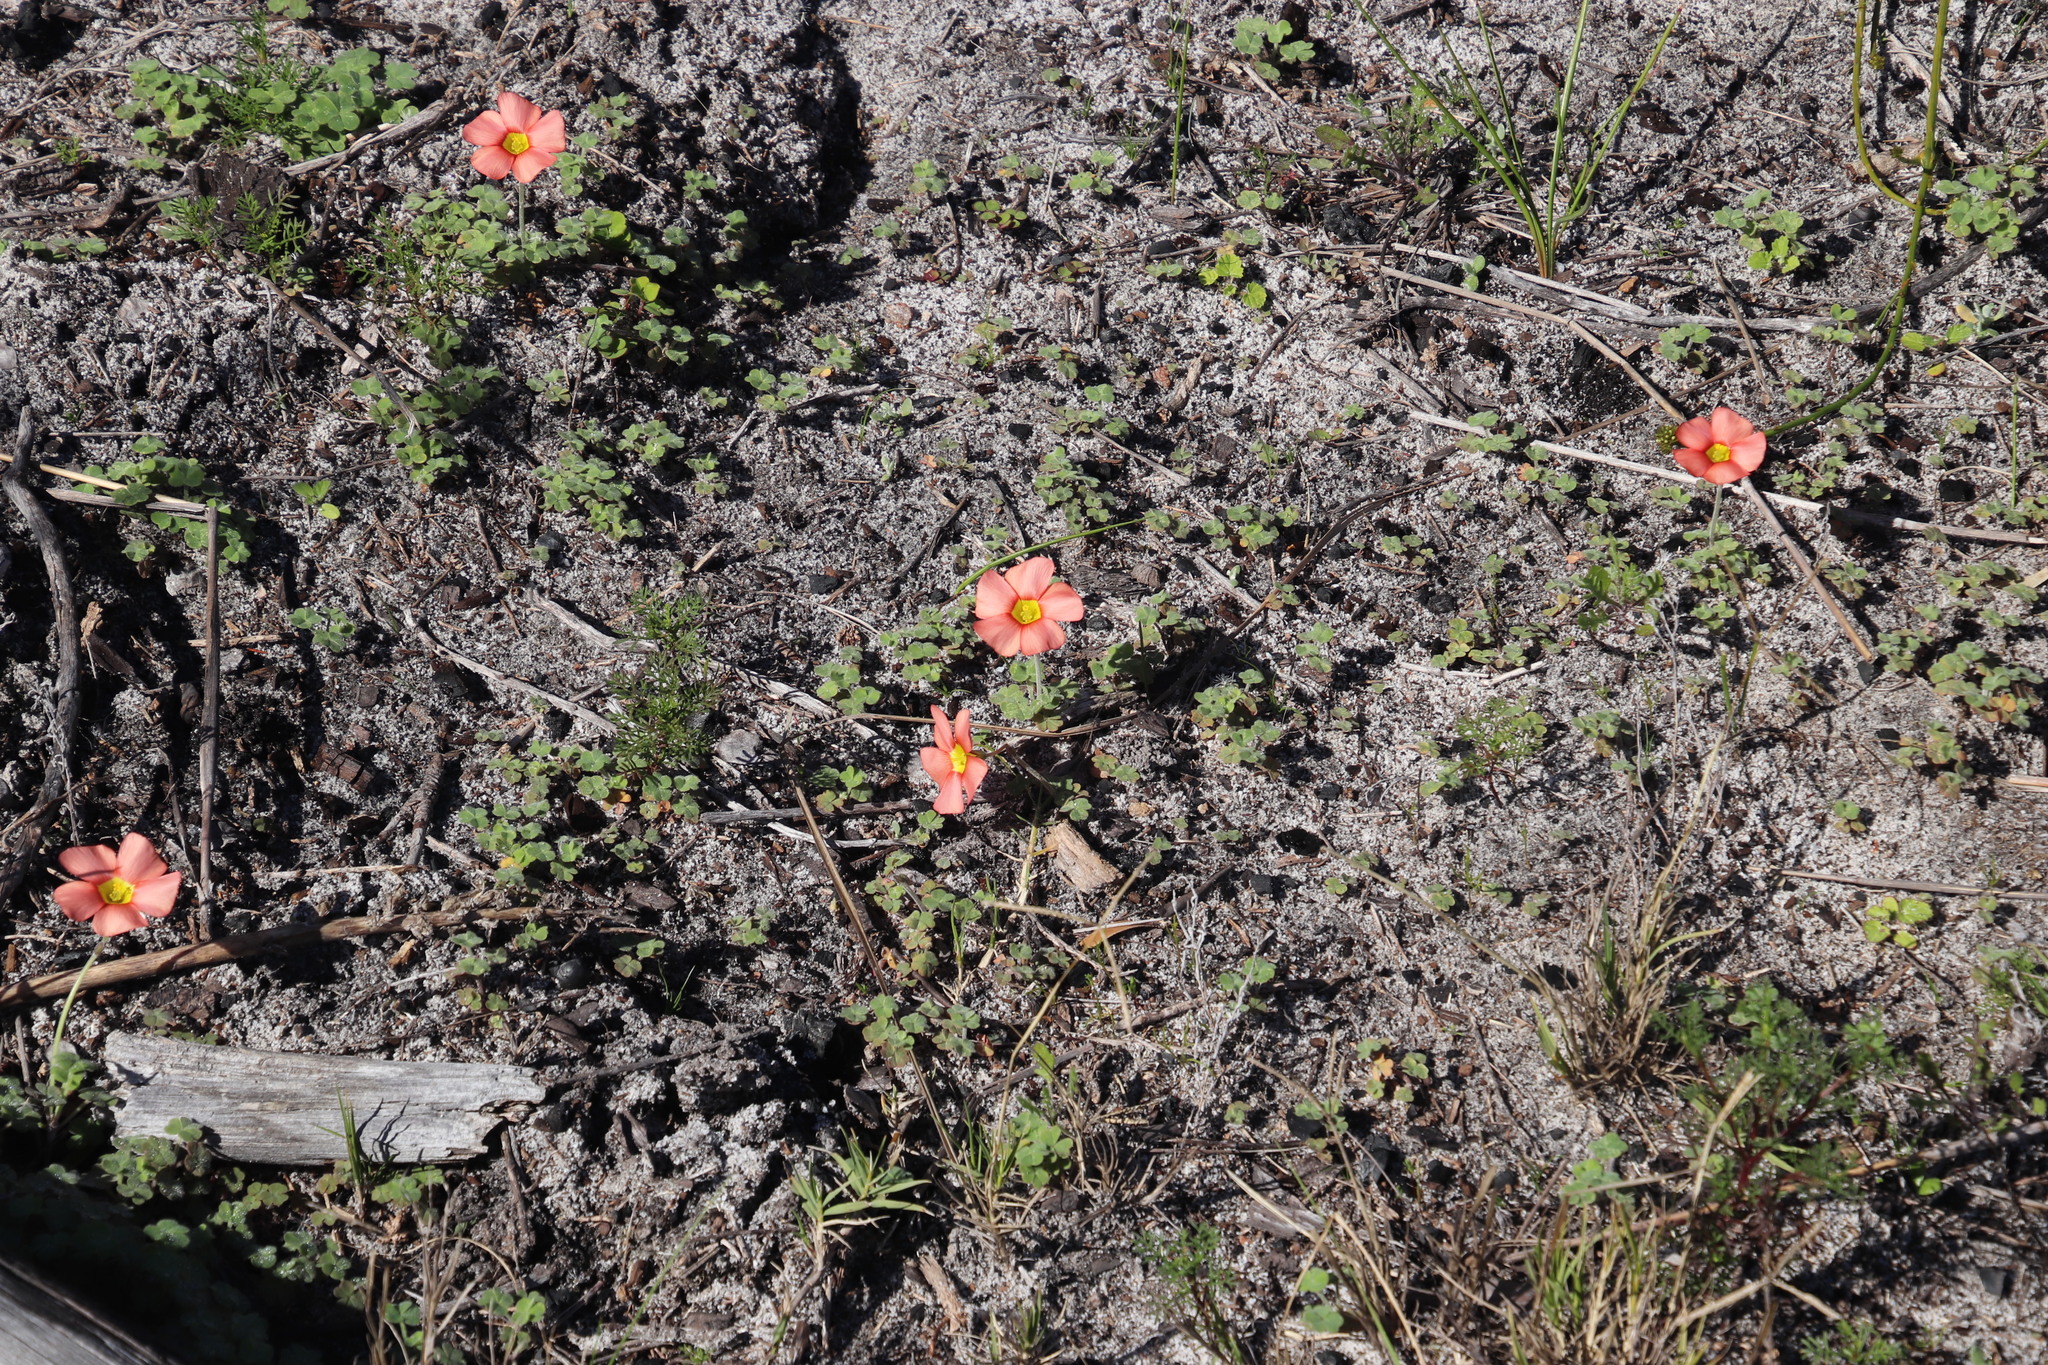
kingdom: Plantae
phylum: Tracheophyta
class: Magnoliopsida
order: Oxalidales
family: Oxalidaceae
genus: Oxalis
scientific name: Oxalis obtusa
